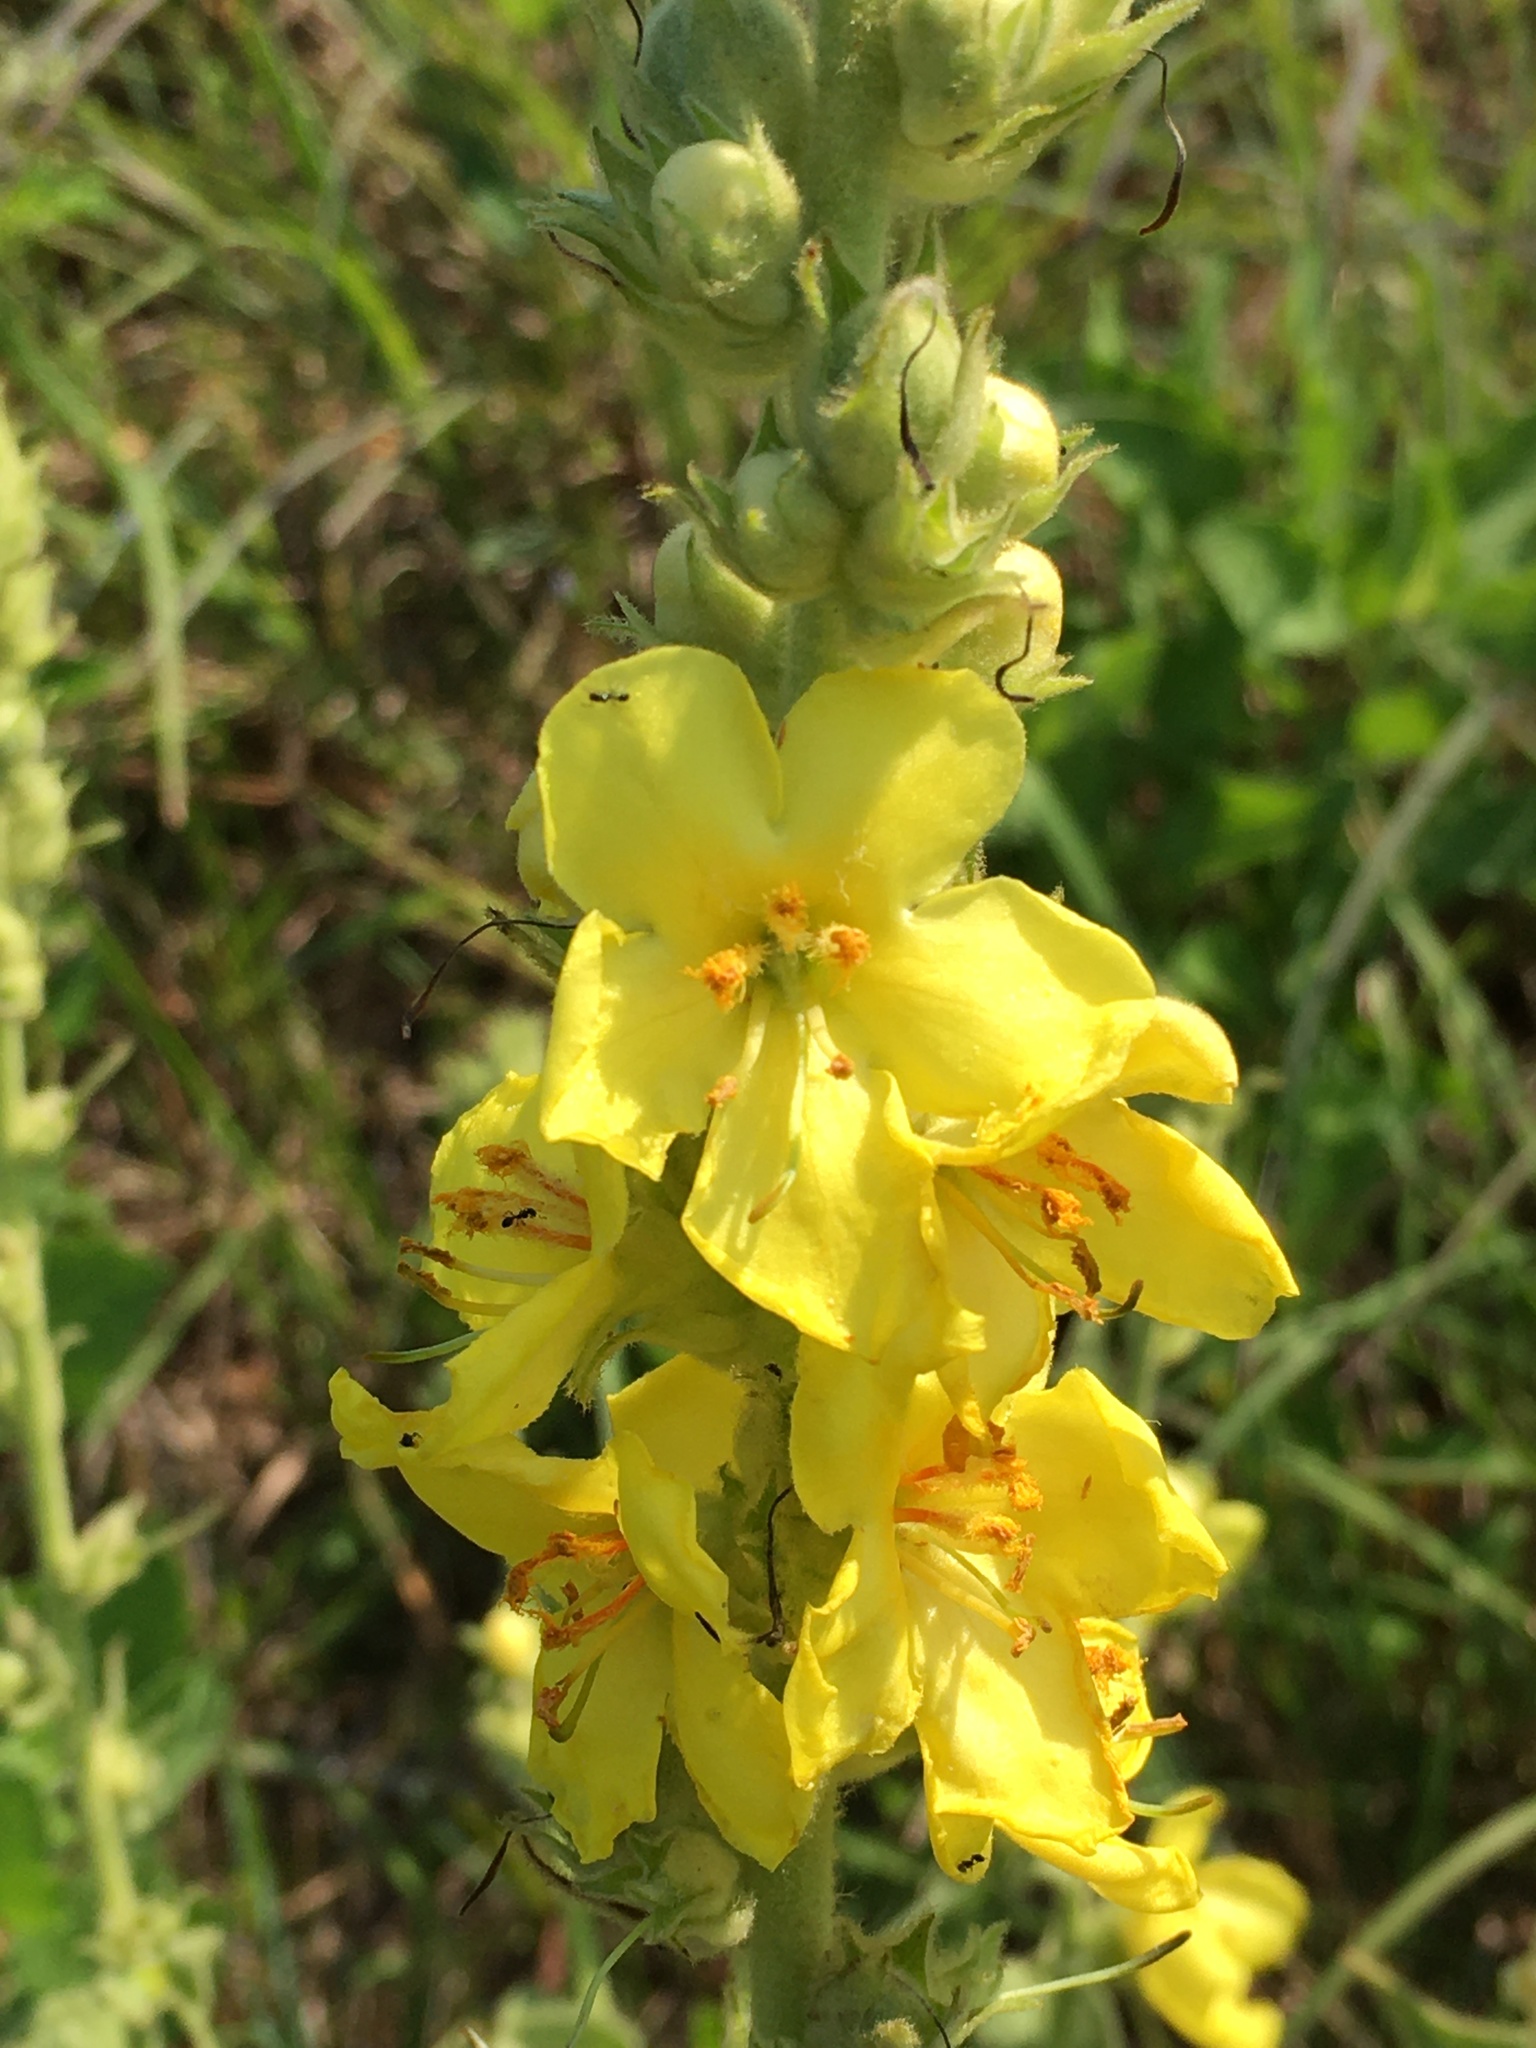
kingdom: Plantae
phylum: Tracheophyta
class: Magnoliopsida
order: Lamiales
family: Scrophulariaceae
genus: Verbascum
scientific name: Verbascum phlomoides
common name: Orange mullein
